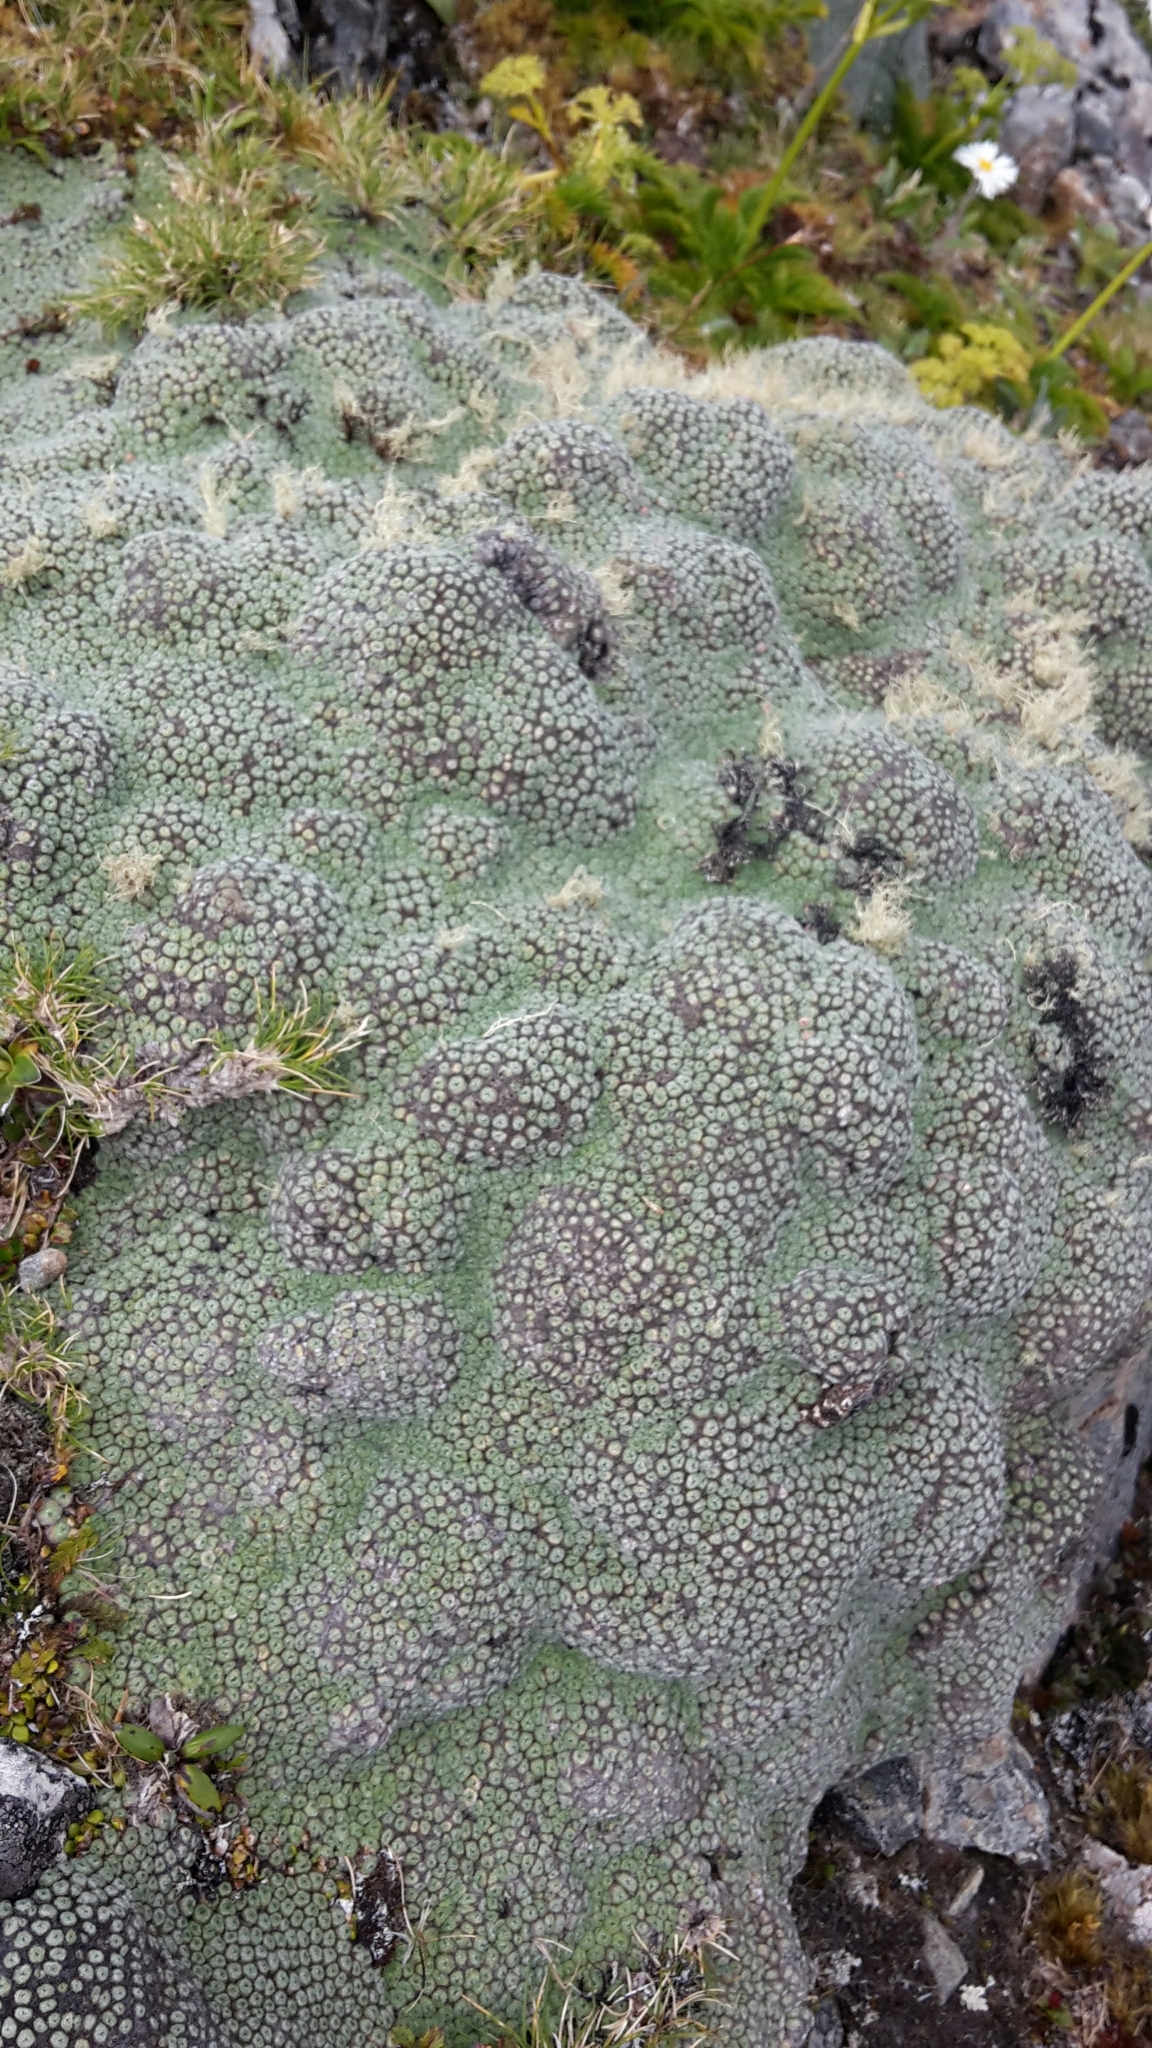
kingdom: Plantae
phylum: Tracheophyta
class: Magnoliopsida
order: Asterales
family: Asteraceae
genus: Raoulia
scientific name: Raoulia rubra
